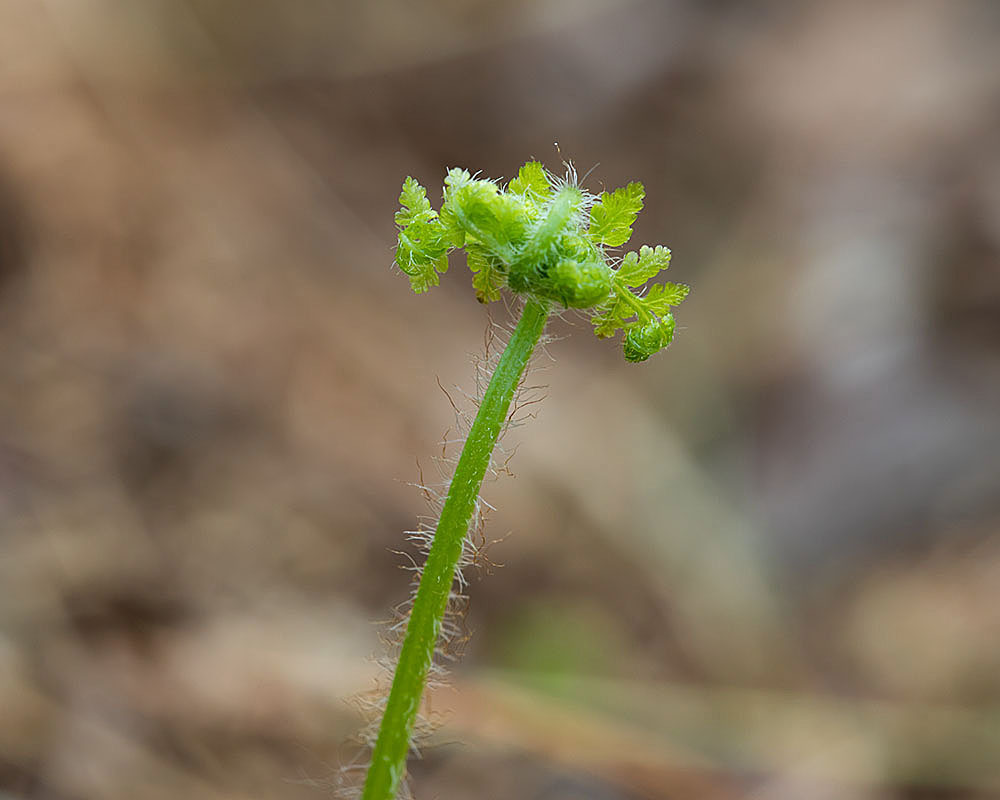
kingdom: Plantae
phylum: Tracheophyta
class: Polypodiopsida
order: Polypodiales
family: Dennstaedtiaceae
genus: Sitobolium
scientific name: Sitobolium punctilobum
